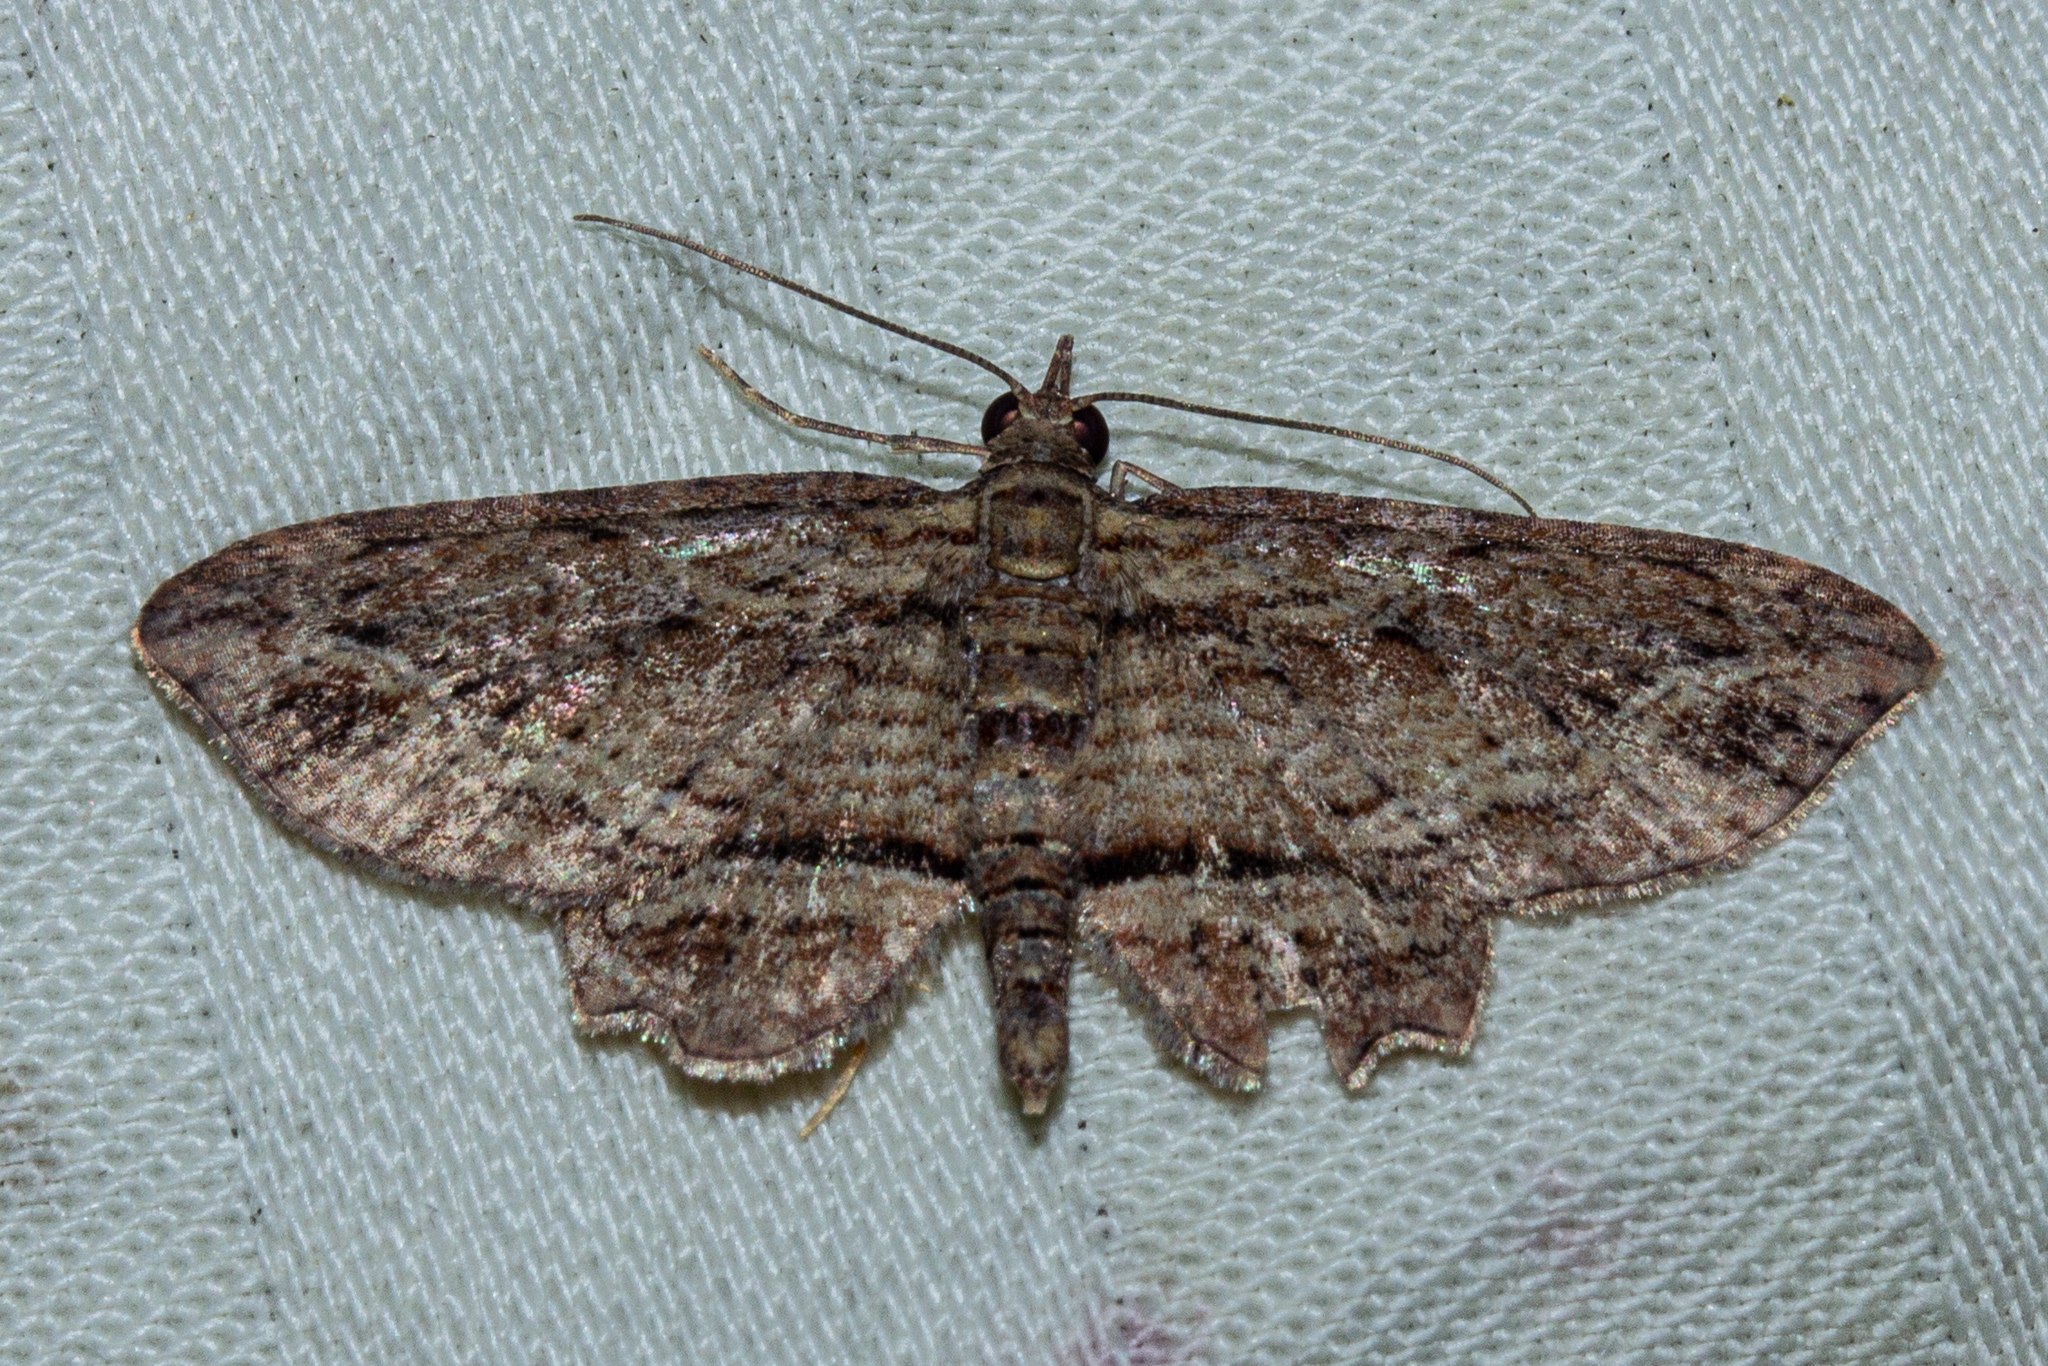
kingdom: Animalia
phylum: Arthropoda
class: Insecta
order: Lepidoptera
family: Geometridae
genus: Chloroclystis
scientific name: Chloroclystis filata
